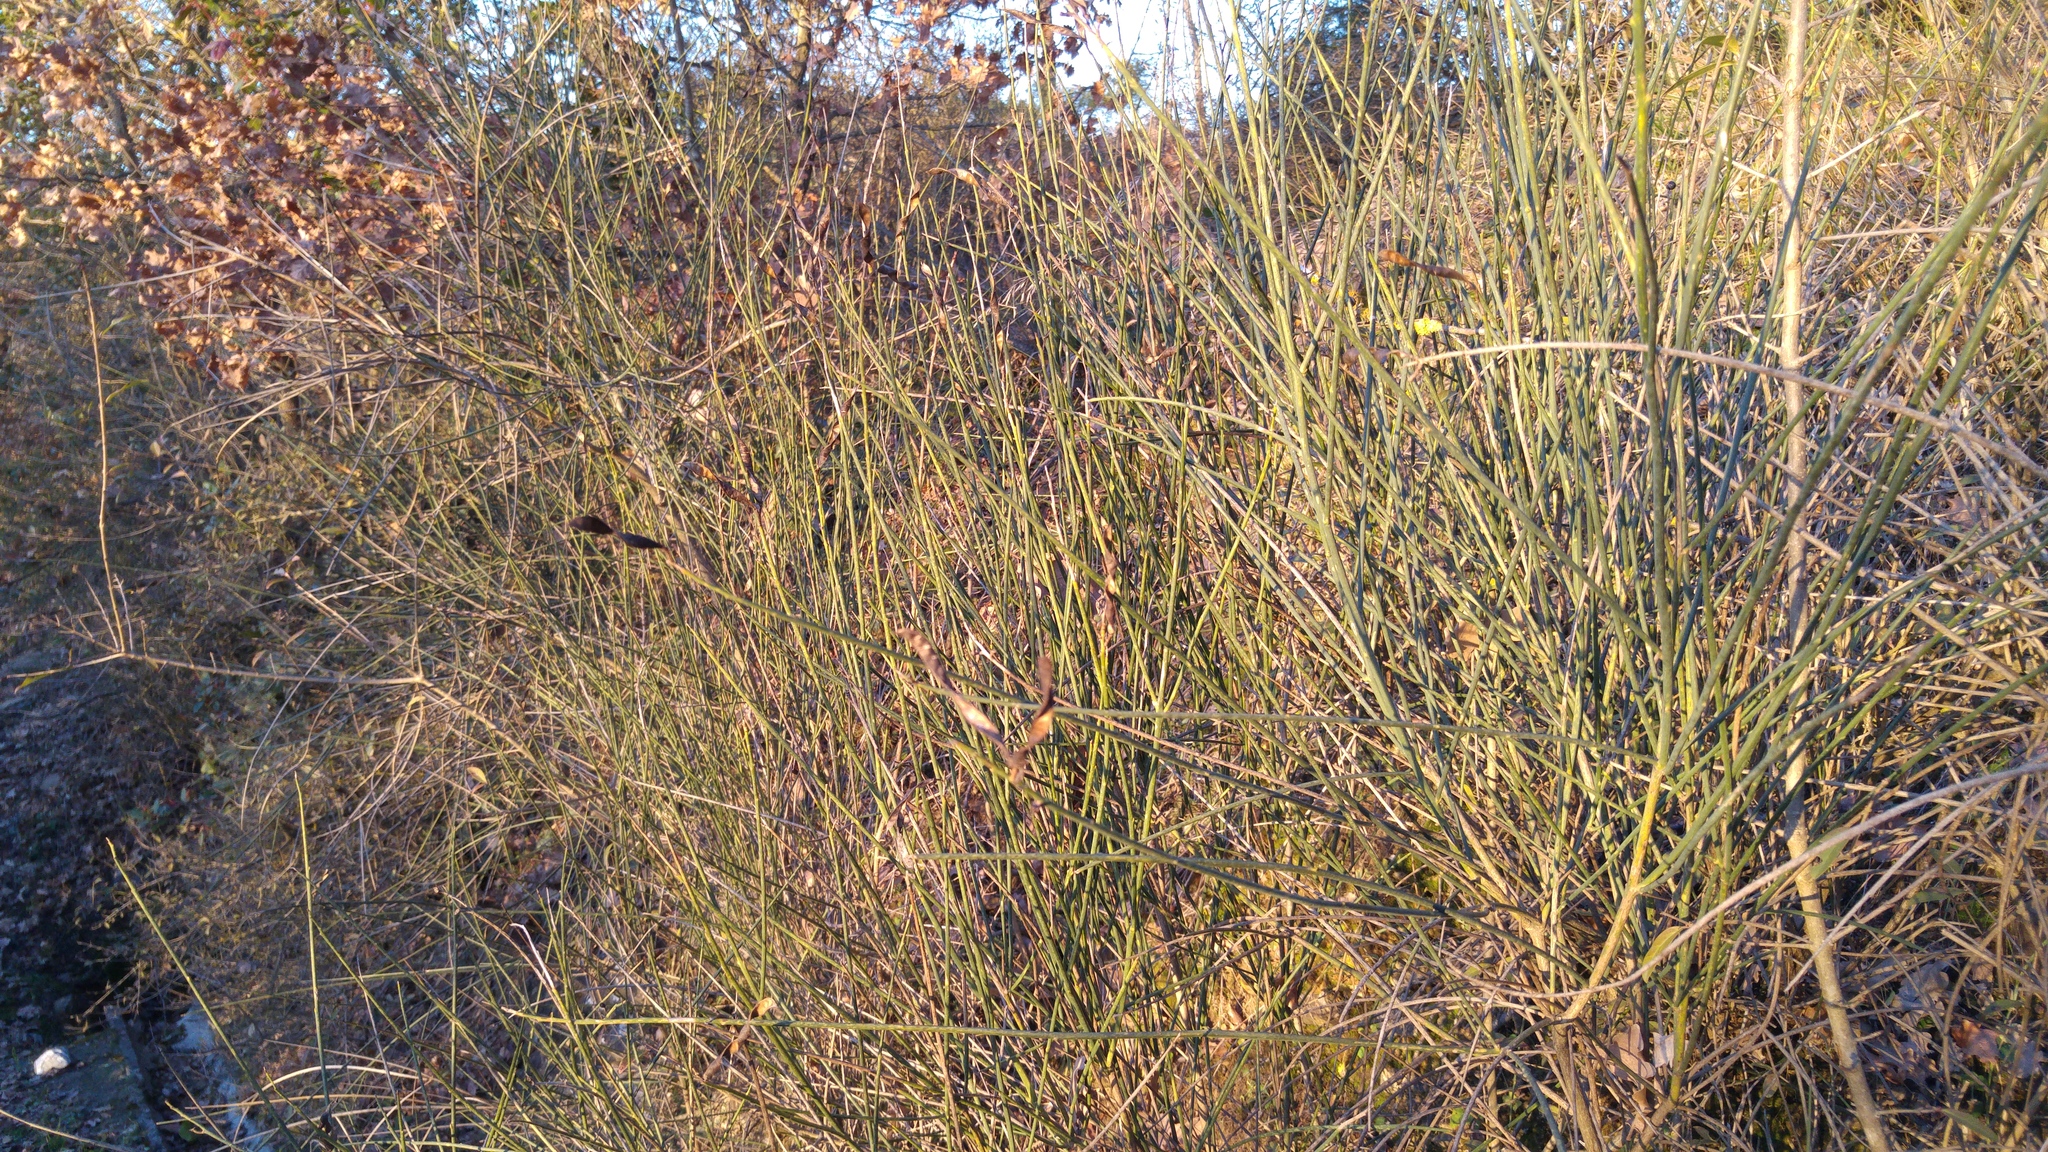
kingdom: Plantae
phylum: Tracheophyta
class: Magnoliopsida
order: Fabales
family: Fabaceae
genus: Spartium
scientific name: Spartium junceum
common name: Spanish broom
